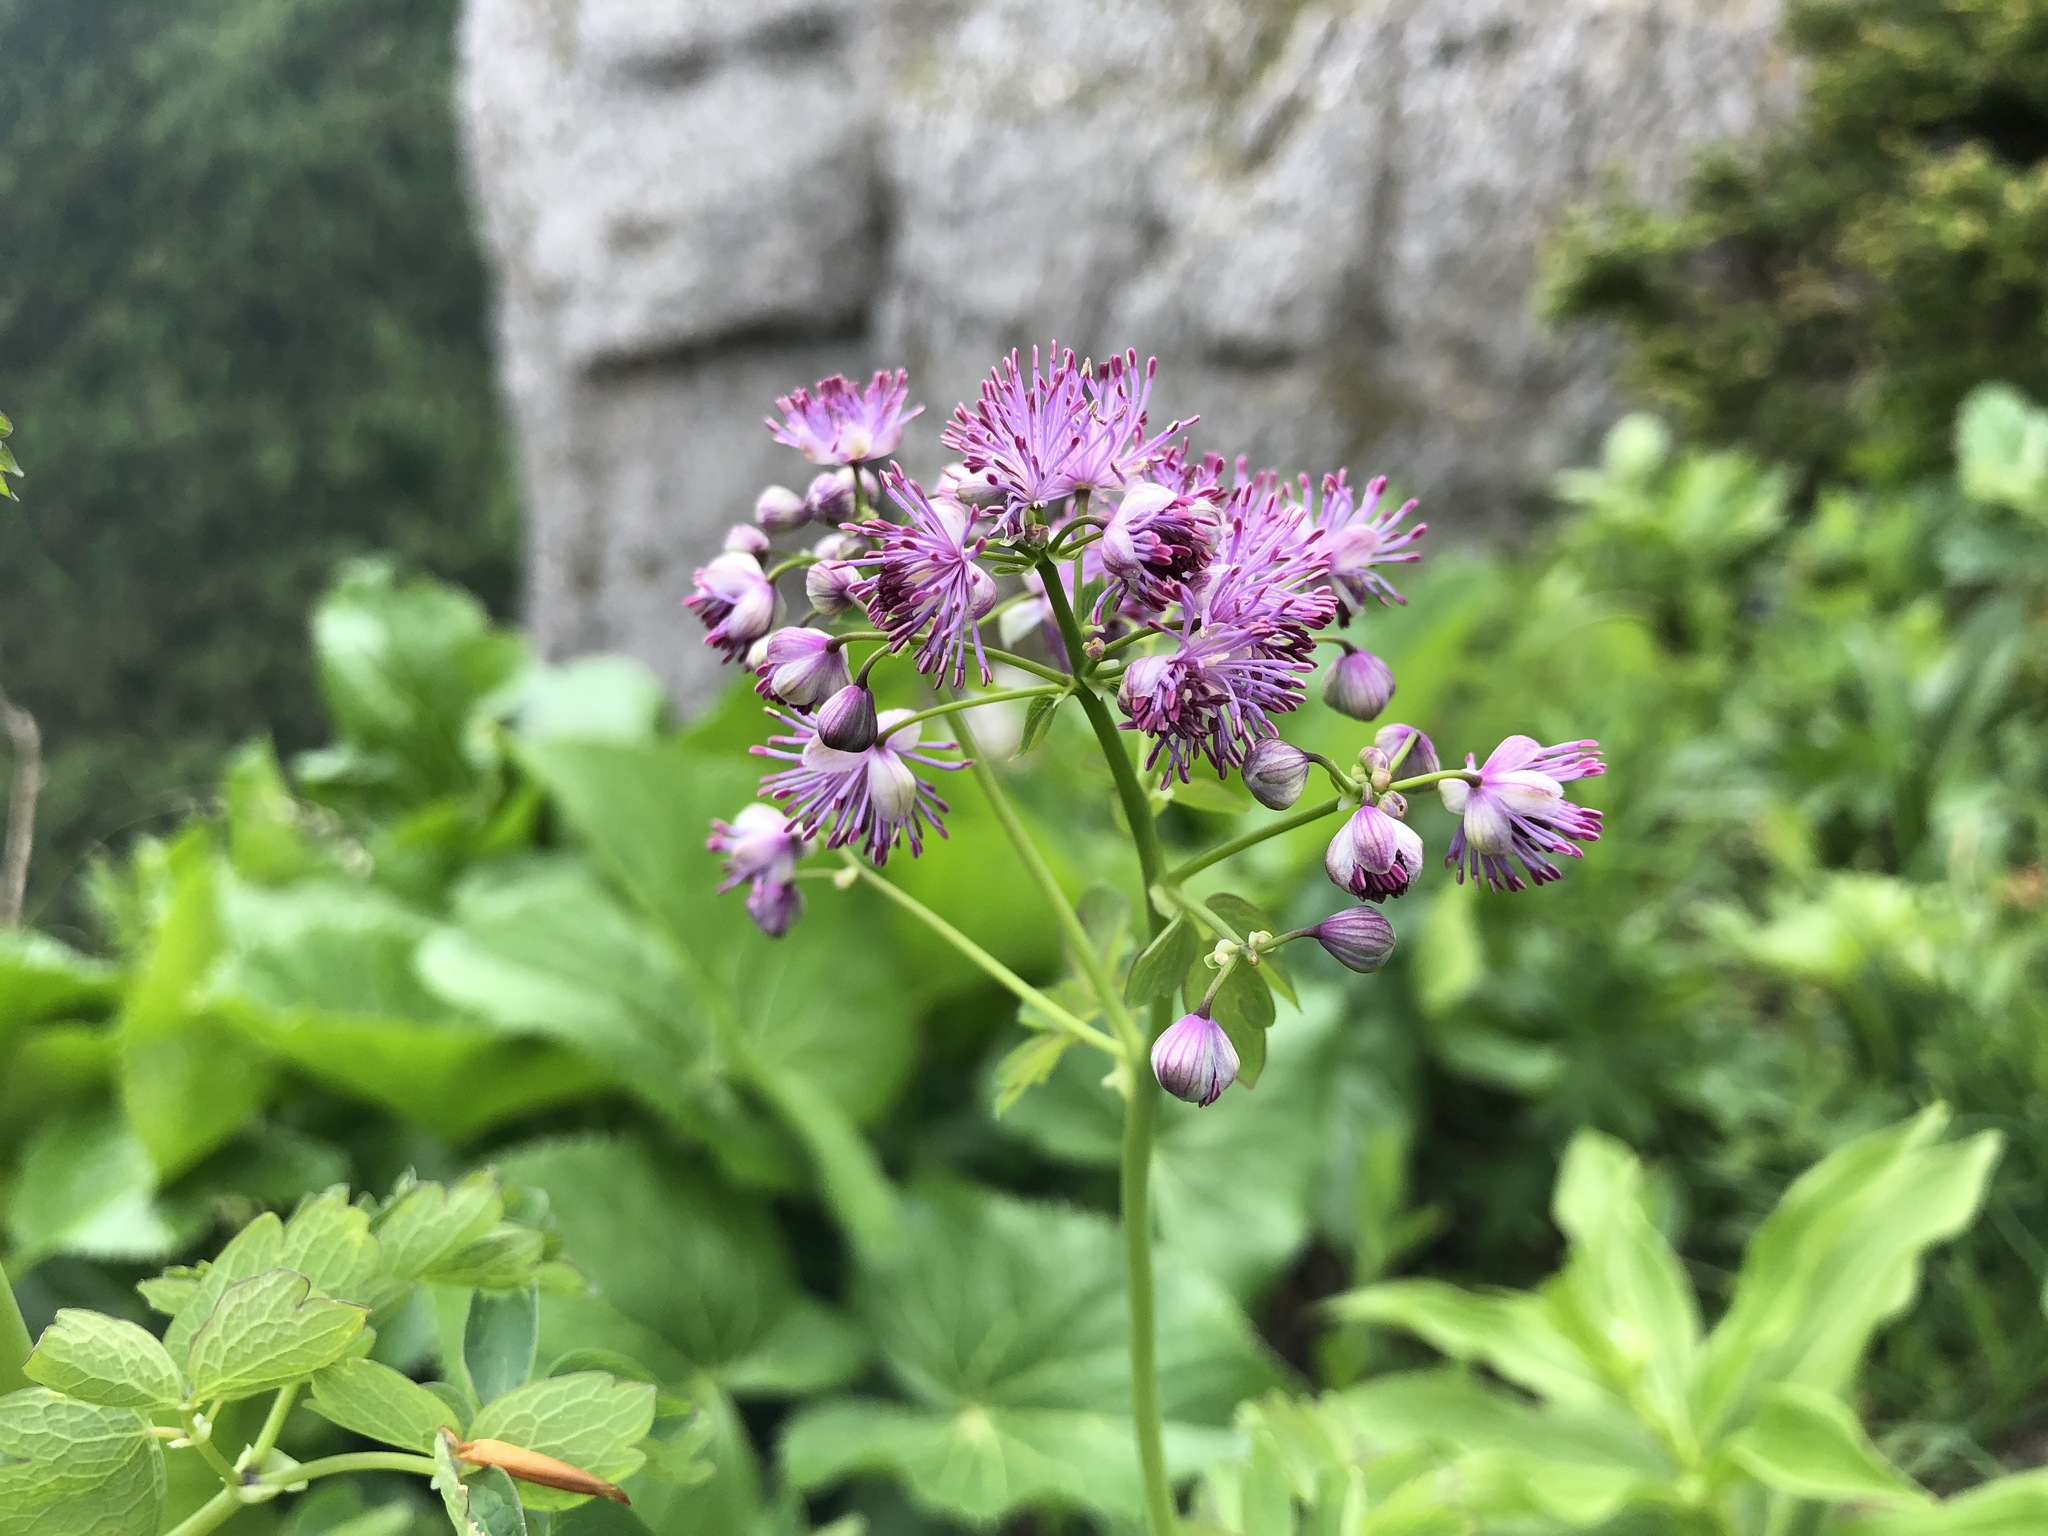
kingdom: Plantae
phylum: Tracheophyta
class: Magnoliopsida
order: Ranunculales
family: Ranunculaceae
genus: Thalictrum
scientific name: Thalictrum aquilegiifolium
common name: French meadow-rue
